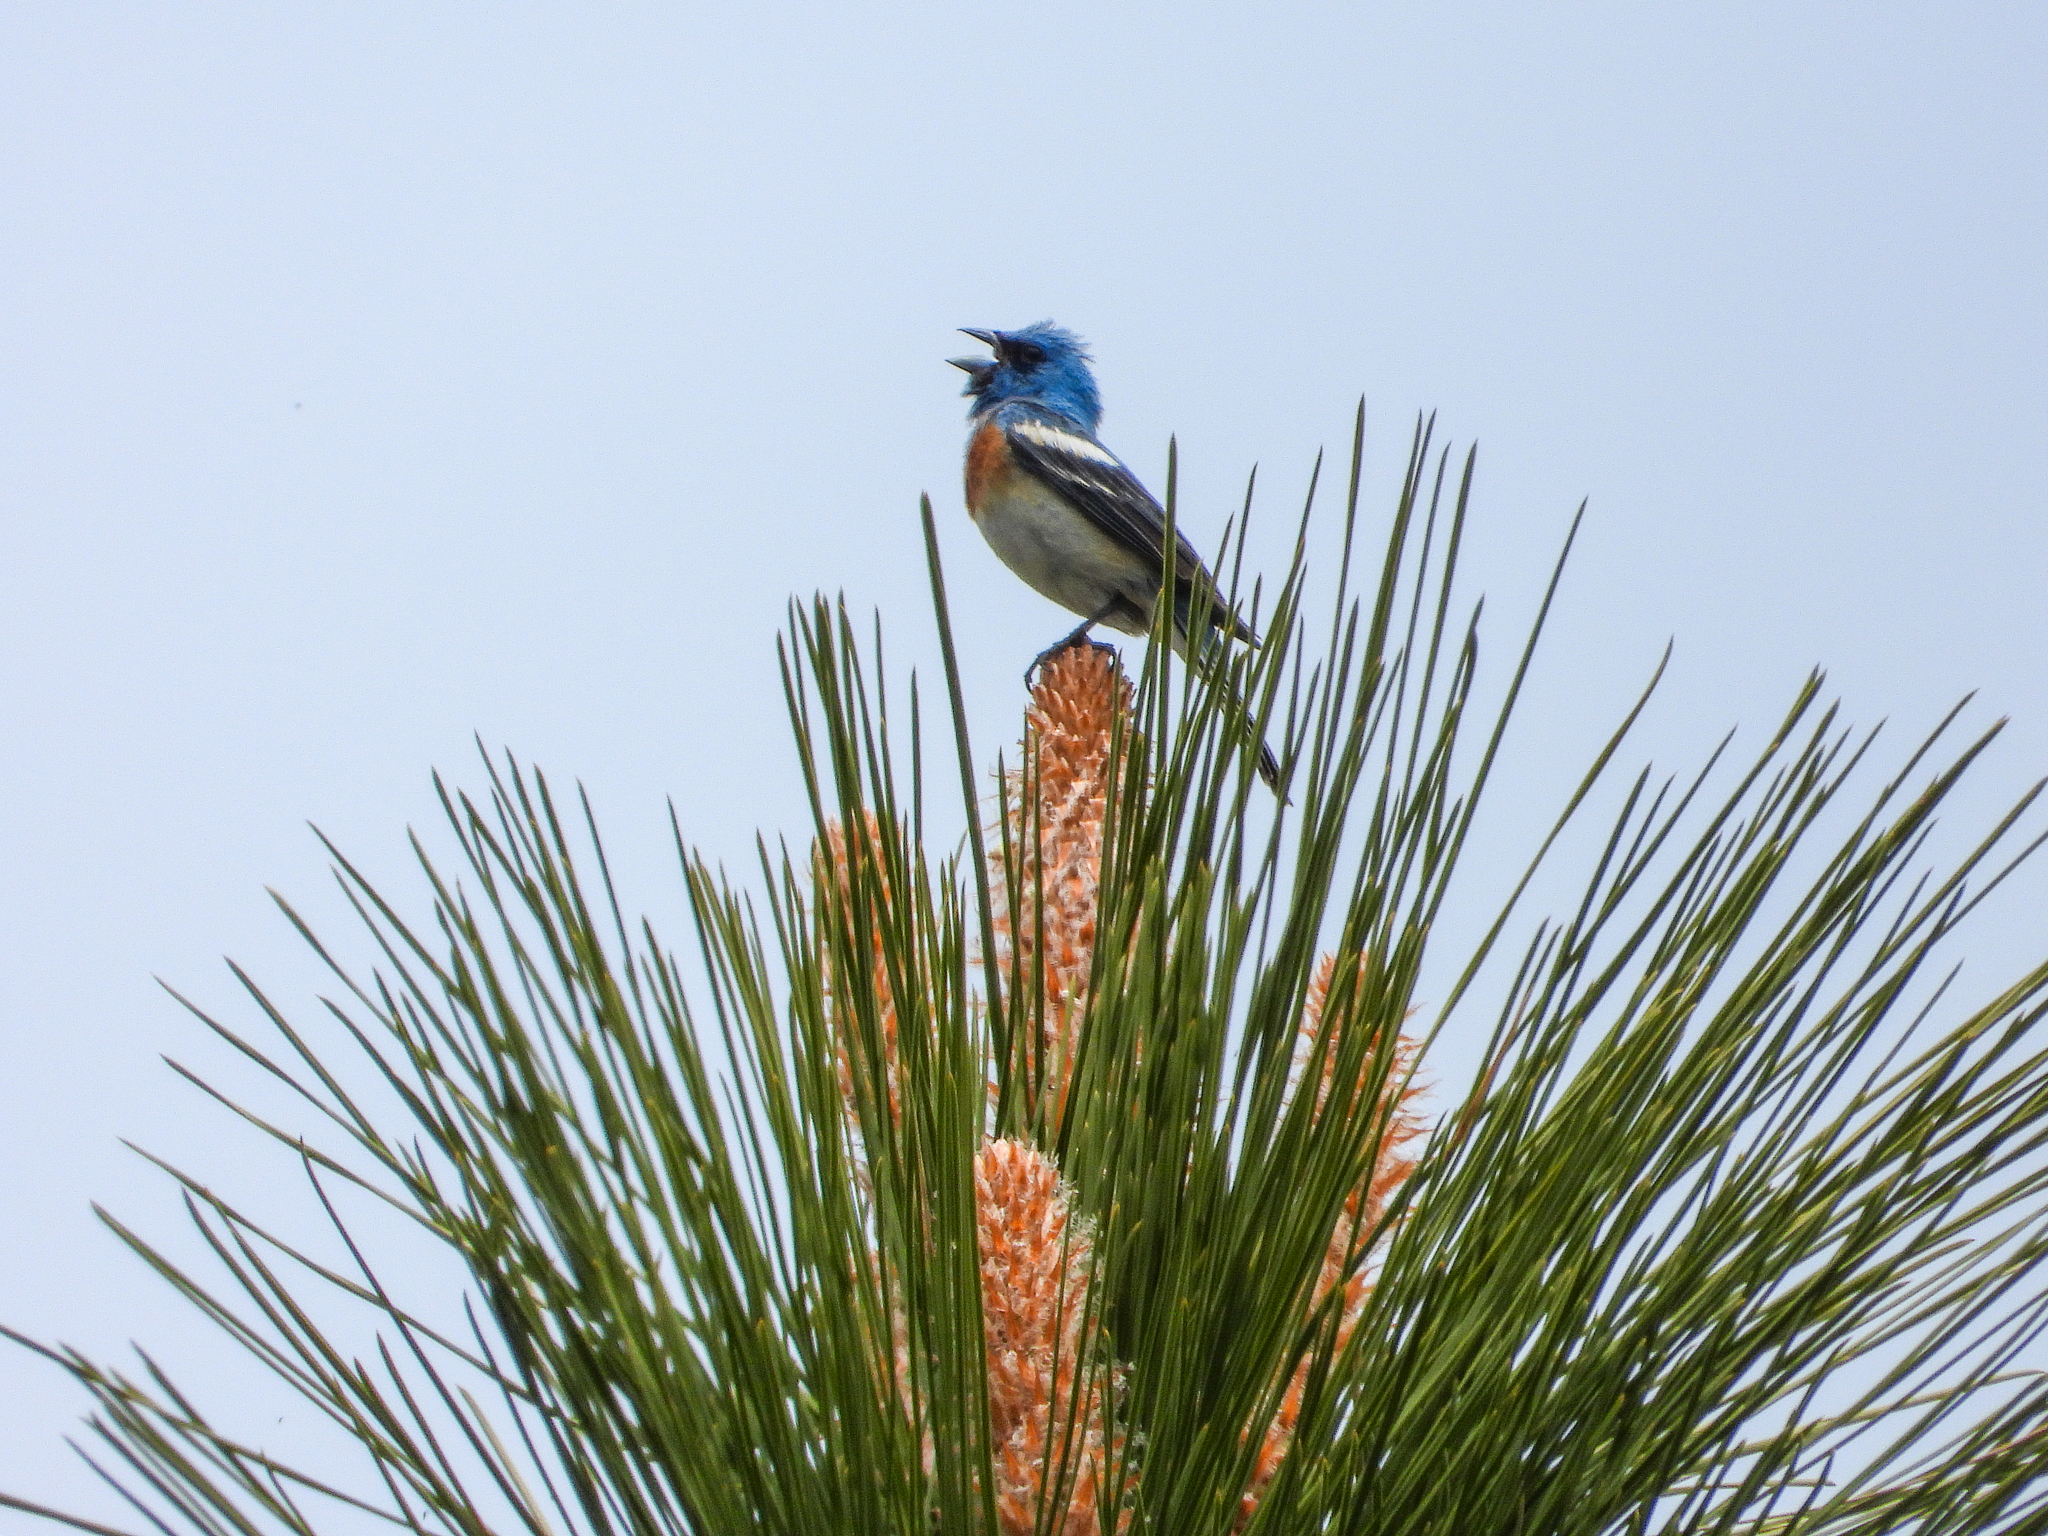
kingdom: Animalia
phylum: Chordata
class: Aves
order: Passeriformes
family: Cardinalidae
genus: Passerina
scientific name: Passerina amoena
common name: Lazuli bunting
